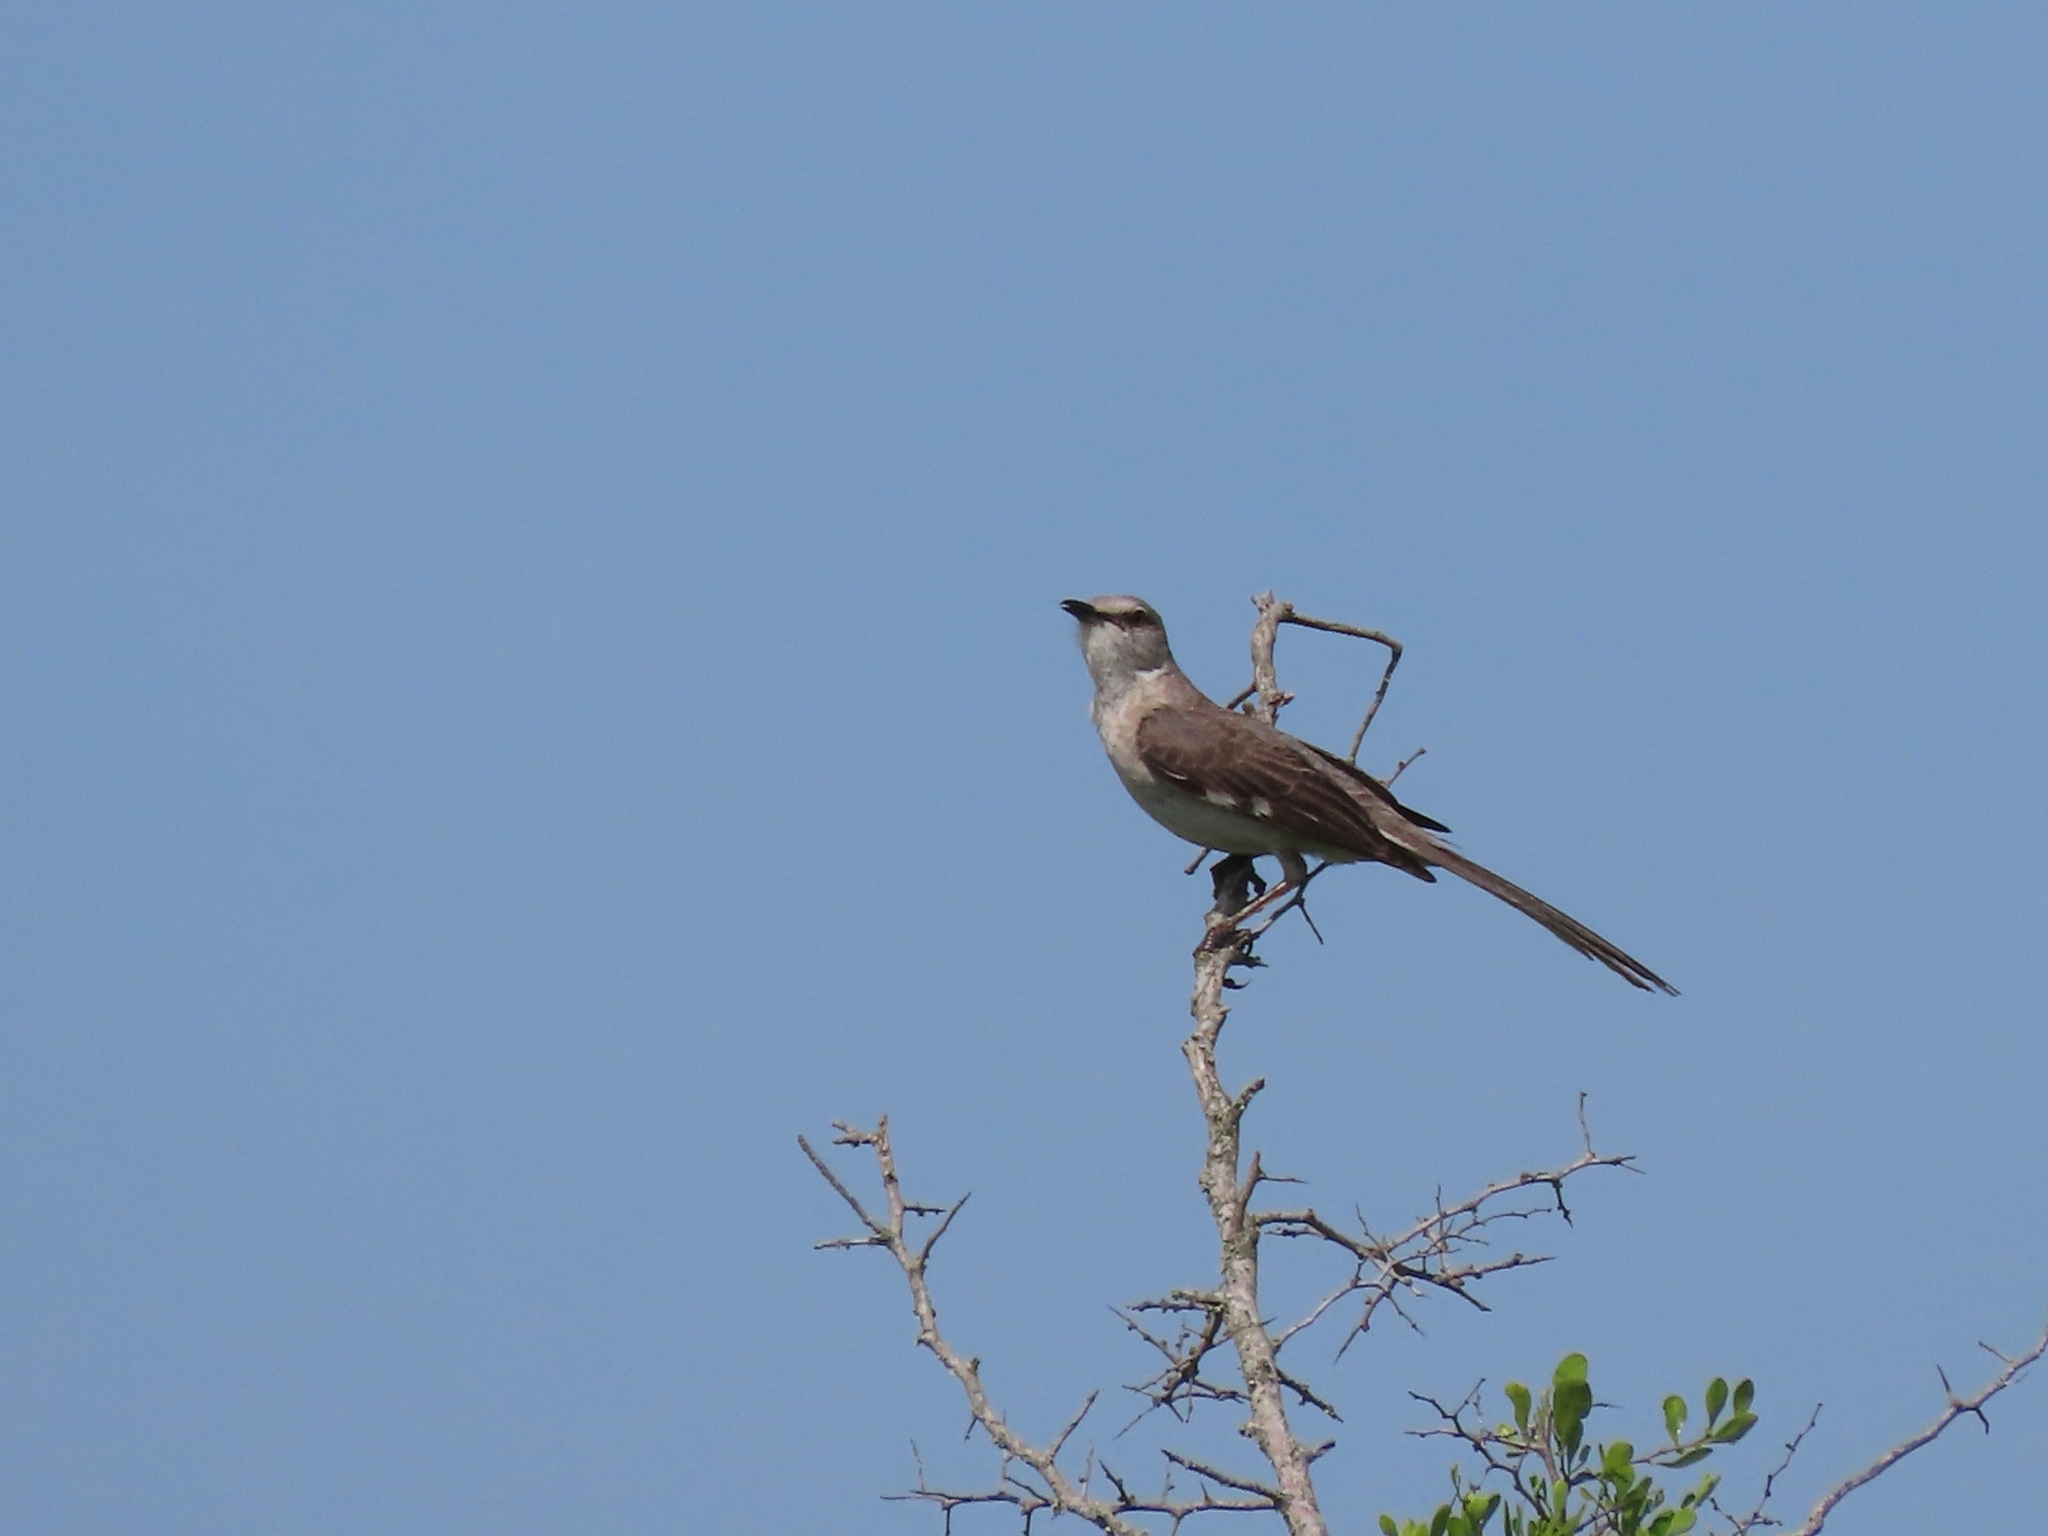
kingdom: Animalia
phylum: Chordata
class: Aves
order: Passeriformes
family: Mimidae
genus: Mimus
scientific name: Mimus polyglottos
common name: Northern mockingbird
